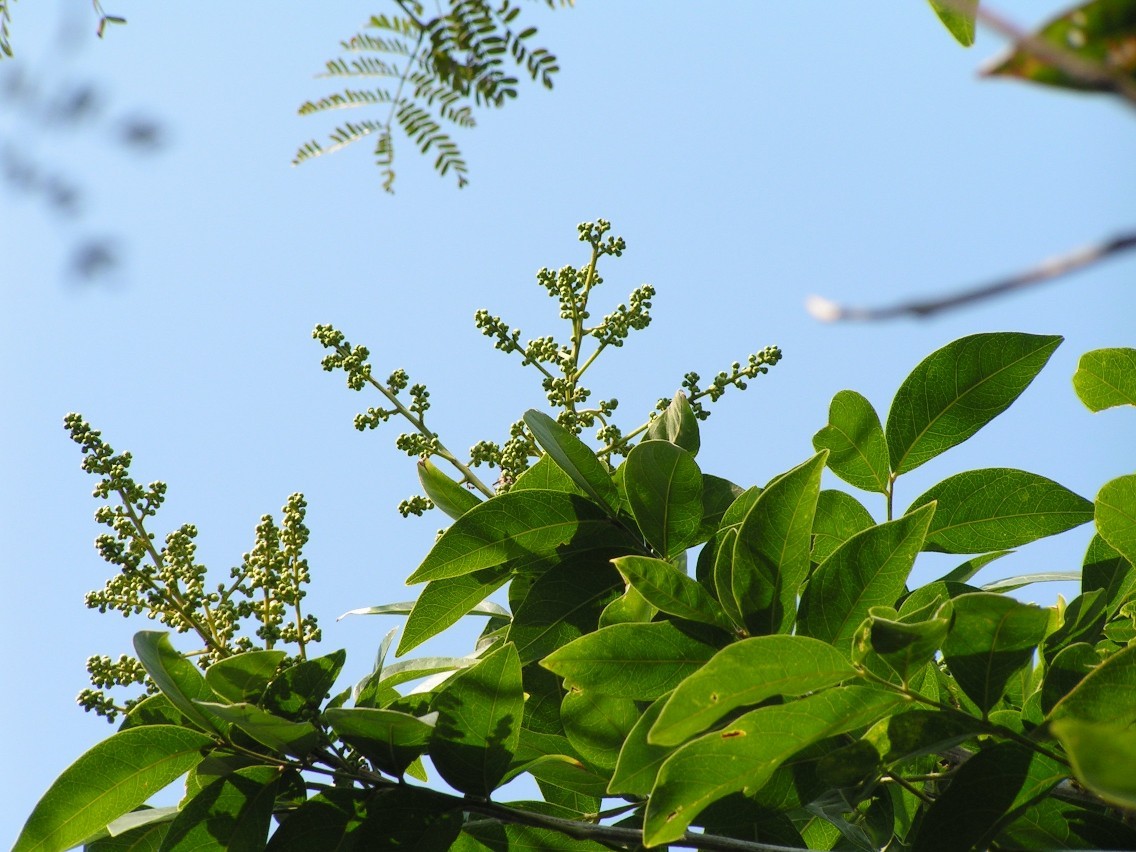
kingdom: Plantae
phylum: Tracheophyta
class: Magnoliopsida
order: Sapindales
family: Sapindaceae
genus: Sapindus
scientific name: Sapindus
